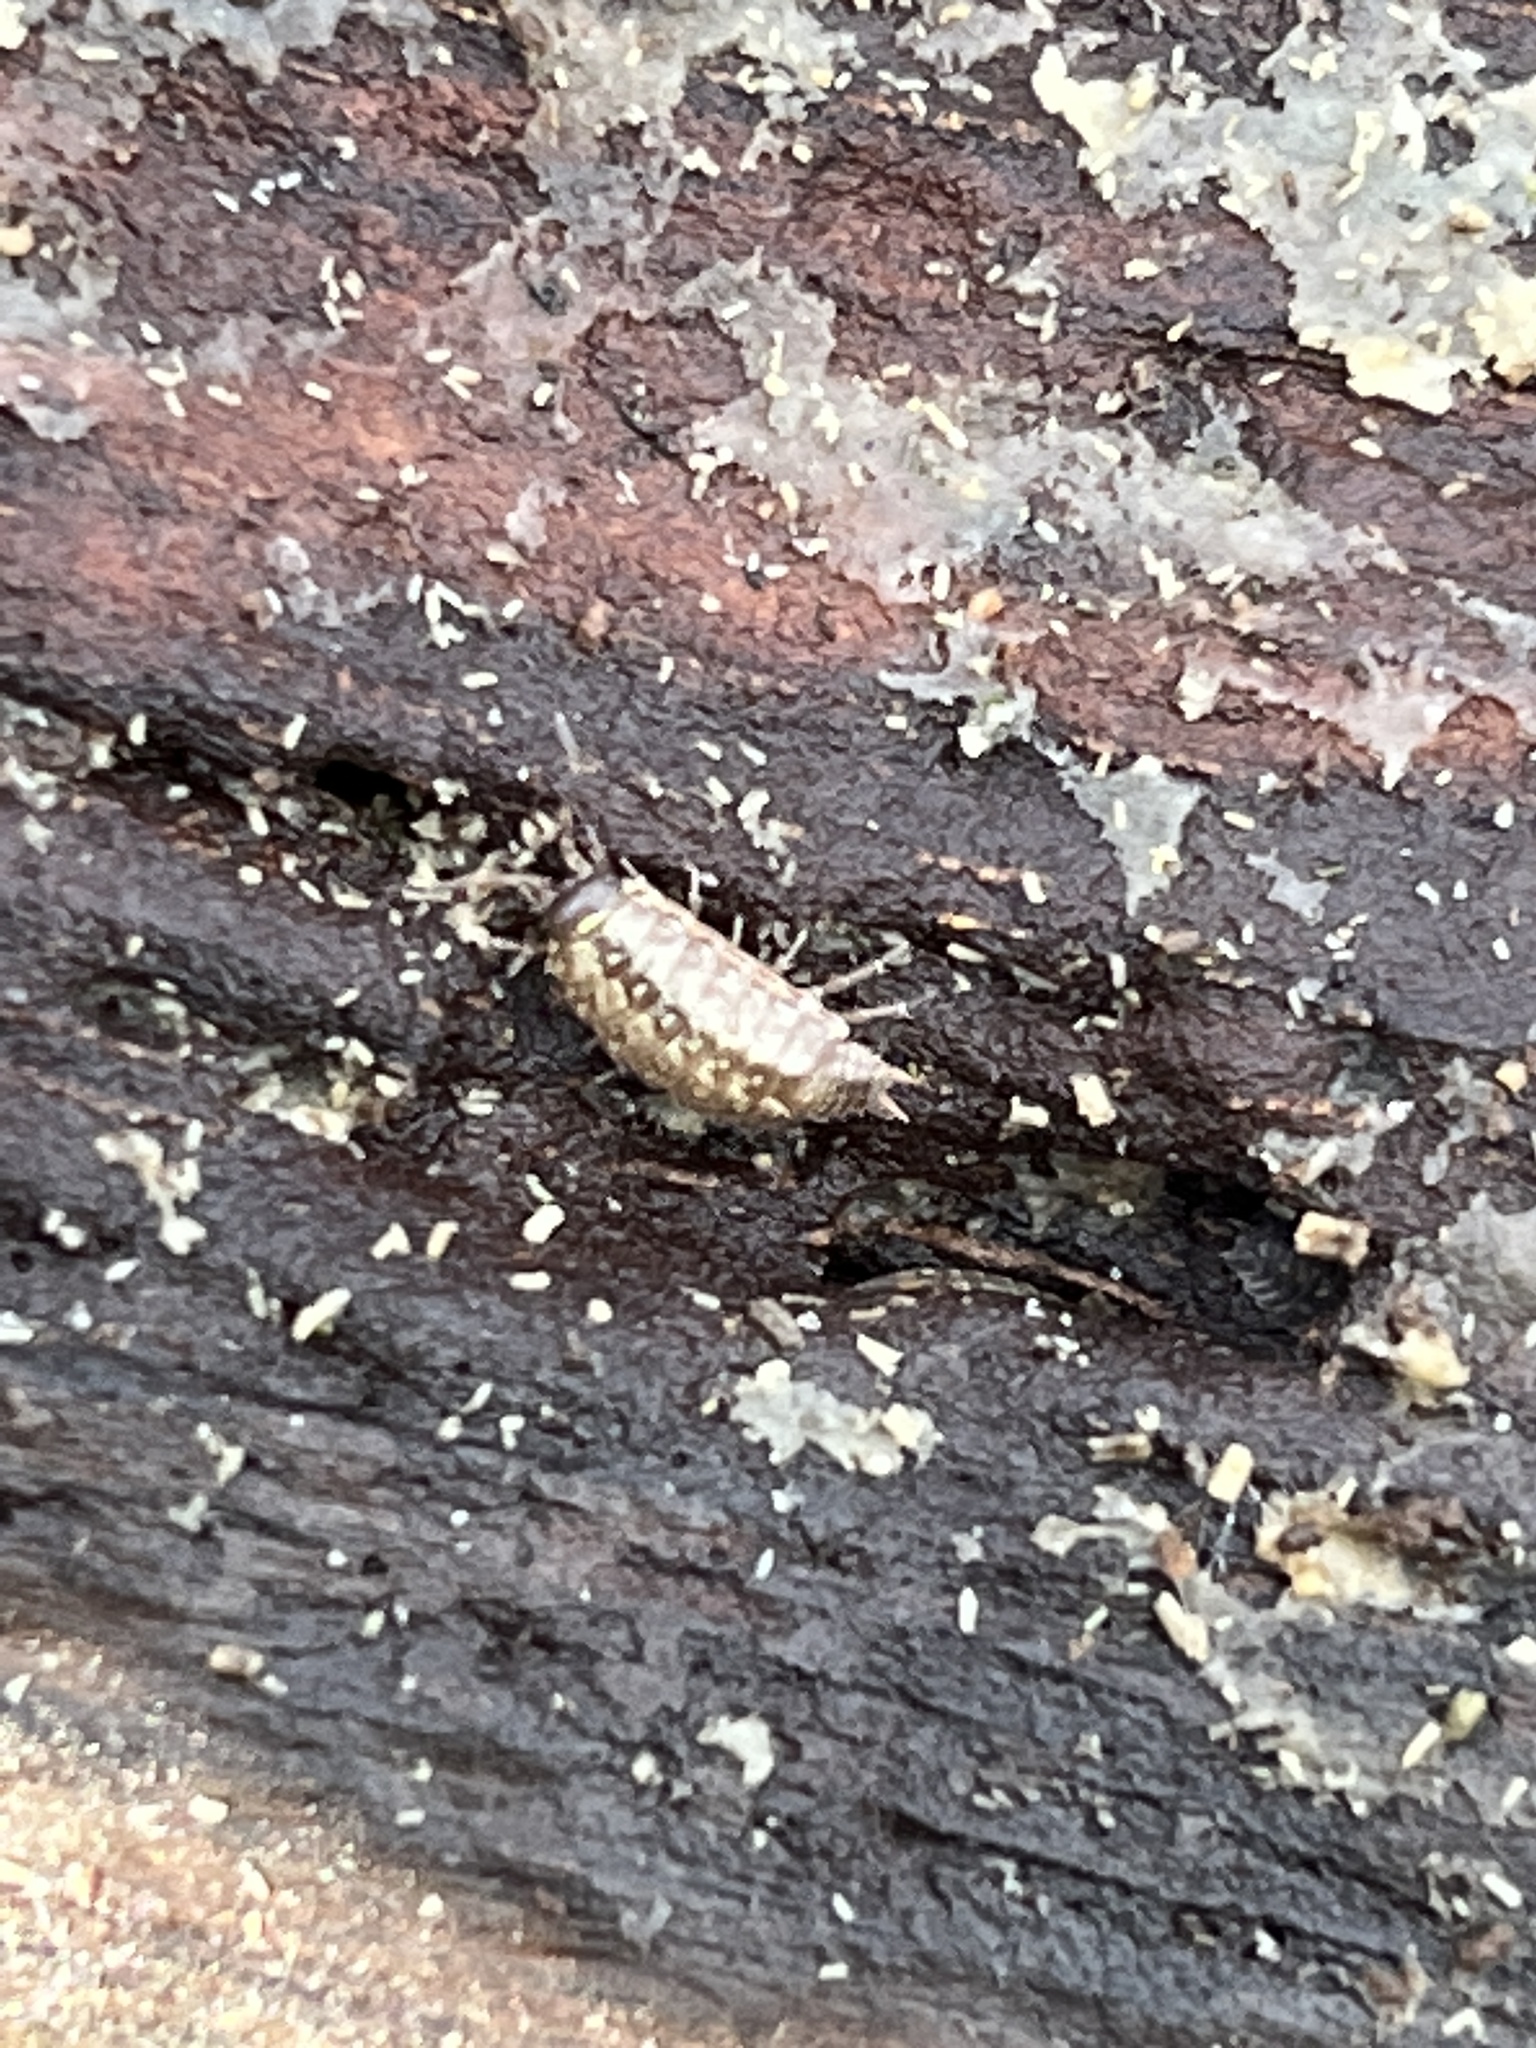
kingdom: Animalia
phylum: Arthropoda
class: Malacostraca
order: Isopoda
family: Philosciidae
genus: Philoscia
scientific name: Philoscia muscorum
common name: Common striped woodlouse
